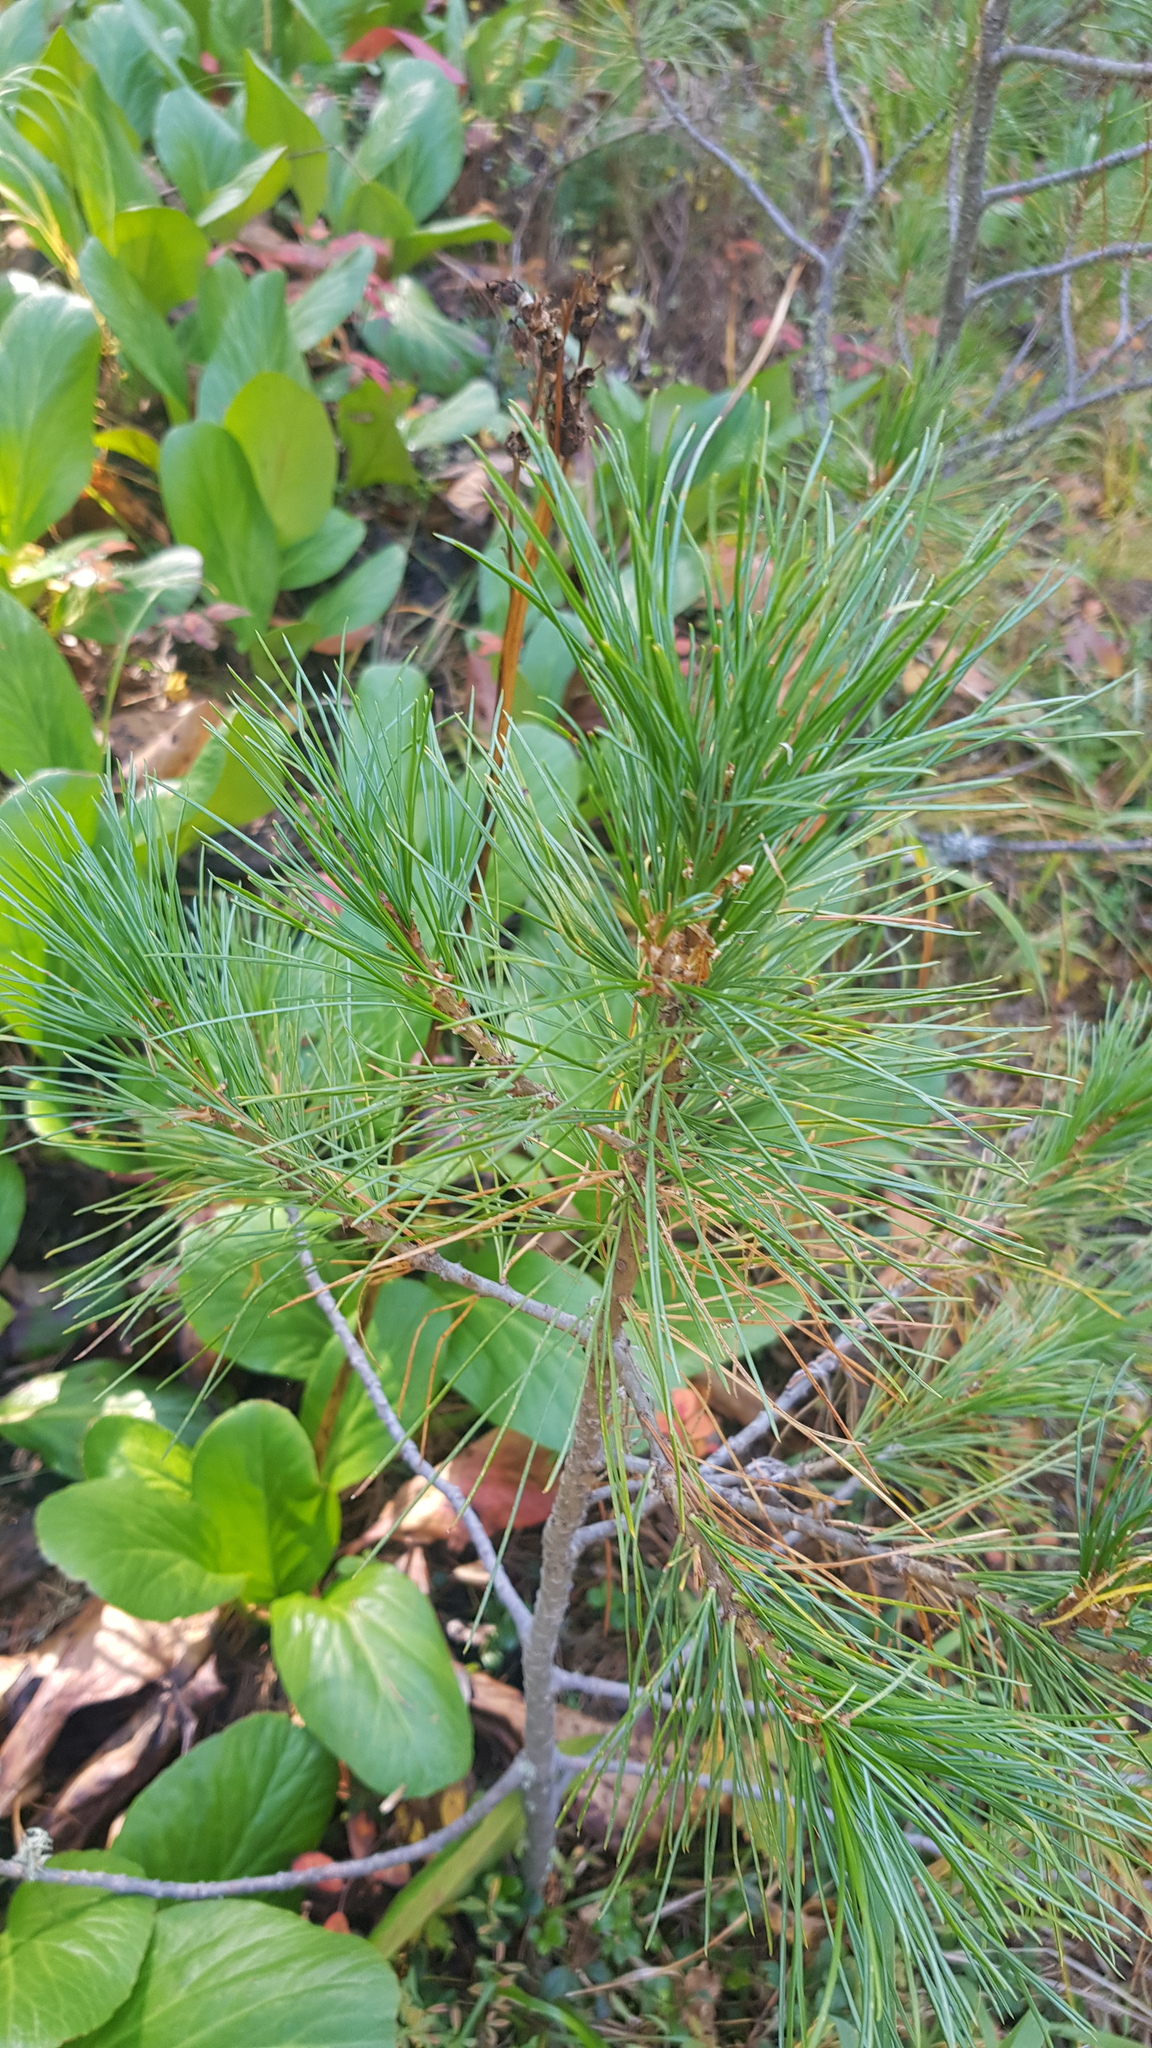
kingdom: Plantae
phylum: Tracheophyta
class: Pinopsida
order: Pinales
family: Pinaceae
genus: Pinus
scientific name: Pinus sibirica
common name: Siberian pine
